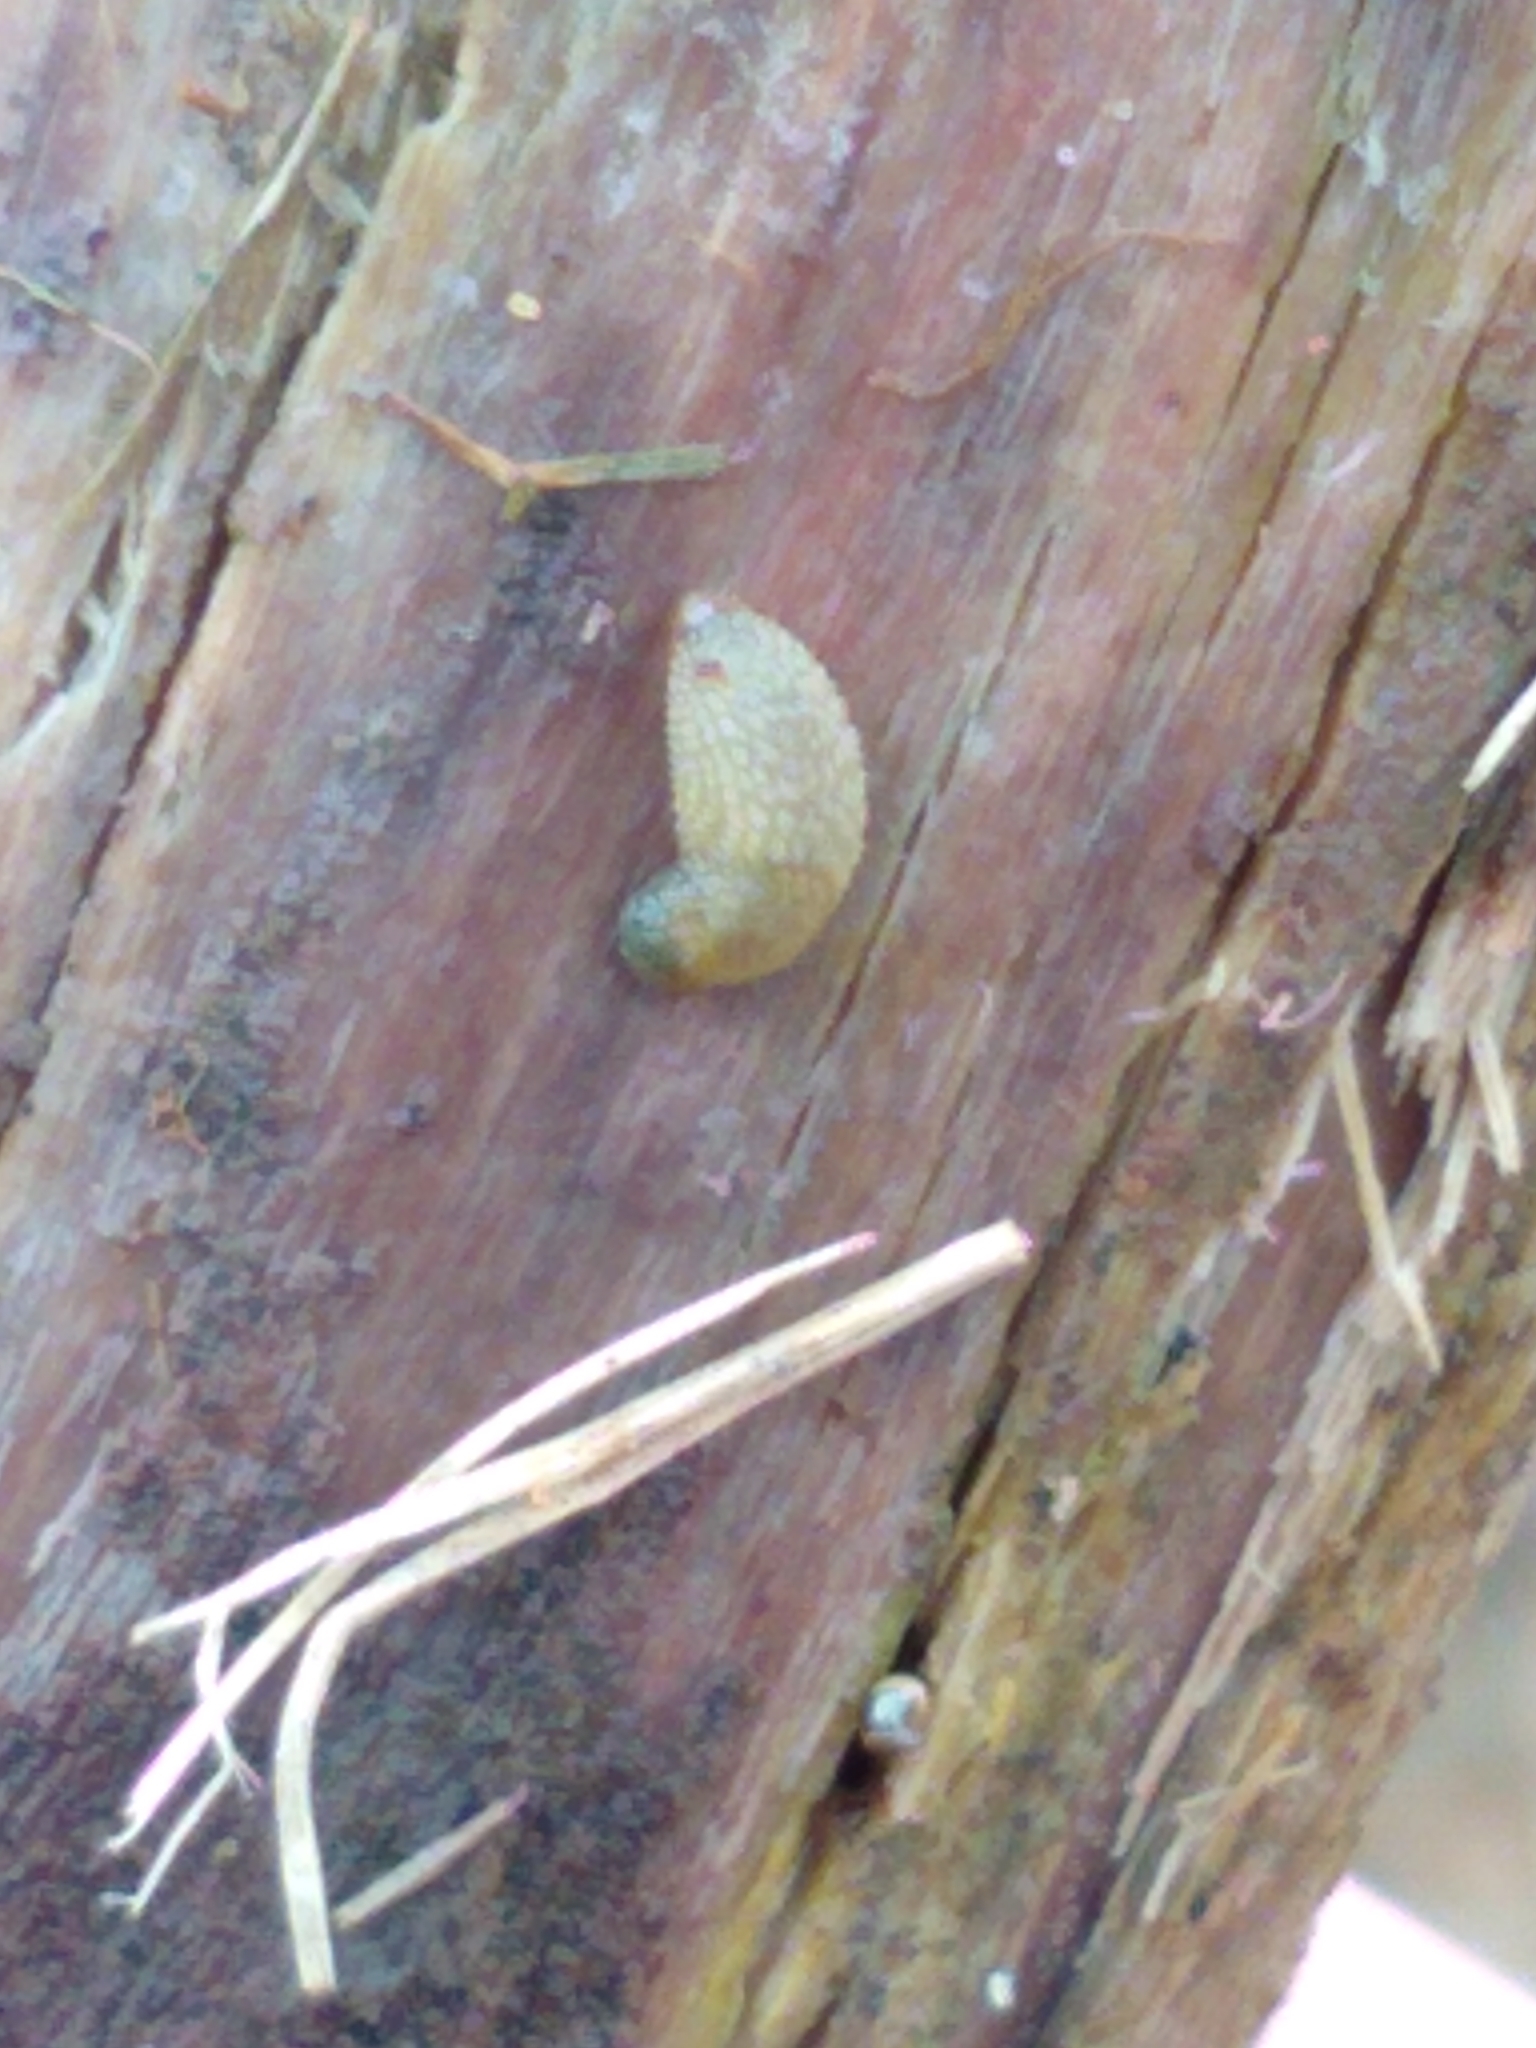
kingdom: Animalia
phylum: Mollusca
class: Gastropoda
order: Stylommatophora
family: Arionidae
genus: Arion
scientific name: Arion intermedius
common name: Hedgehog slug
